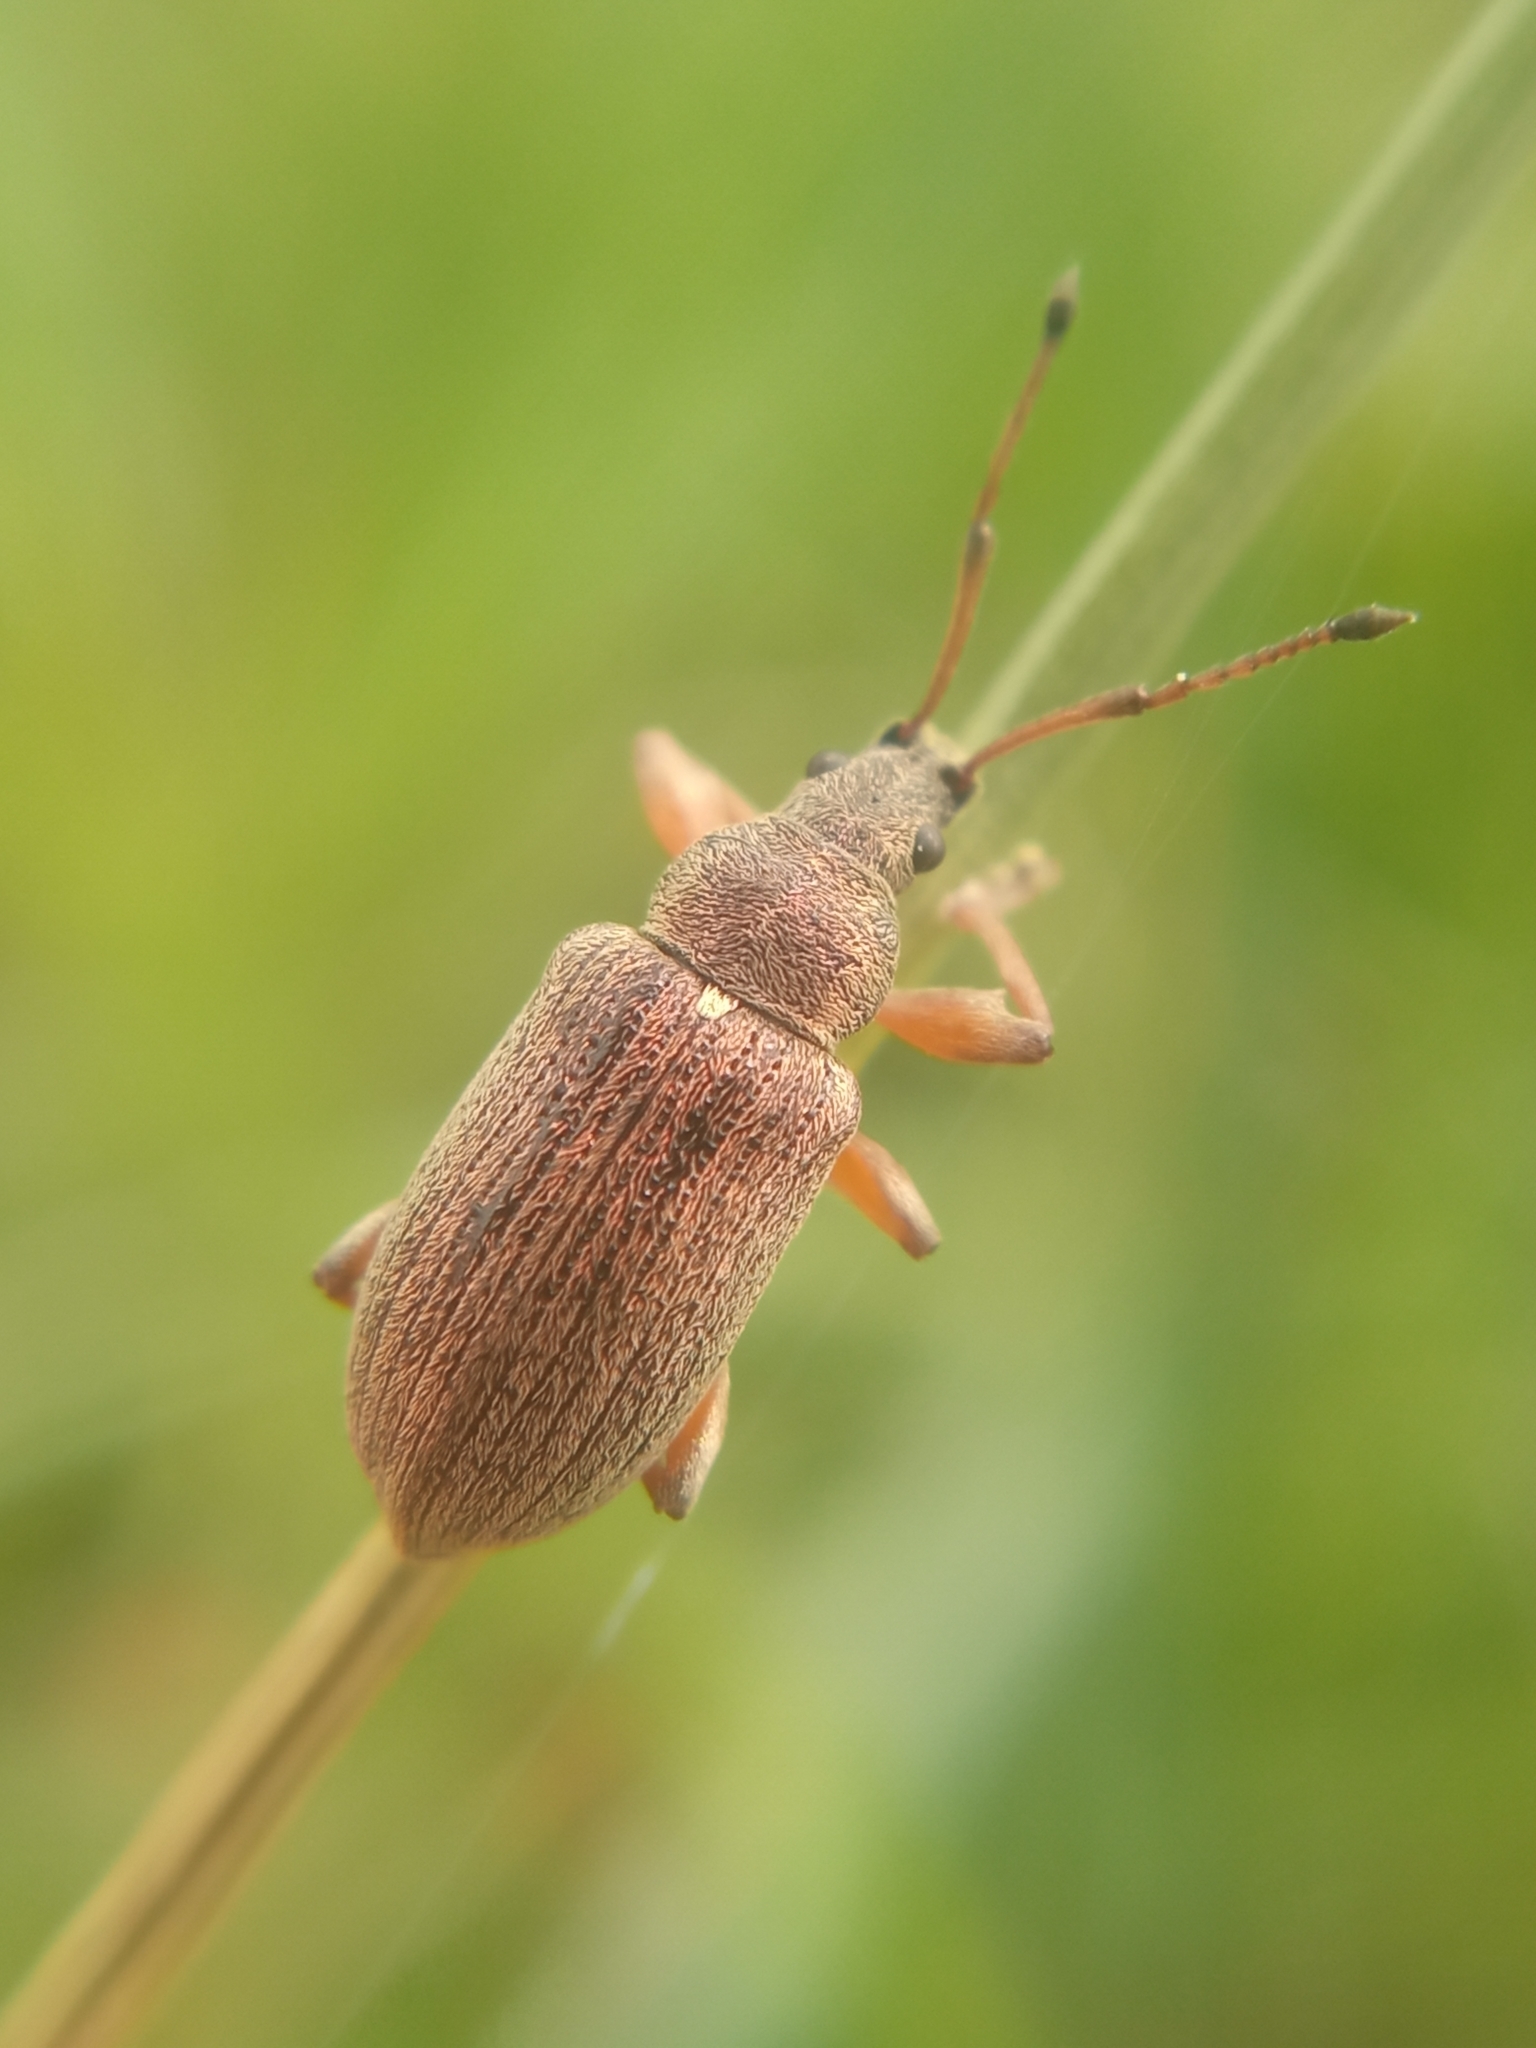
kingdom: Animalia
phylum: Arthropoda
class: Insecta
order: Coleoptera
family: Curculionidae
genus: Phyllobius
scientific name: Phyllobius pyri
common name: Common leaf weevil
